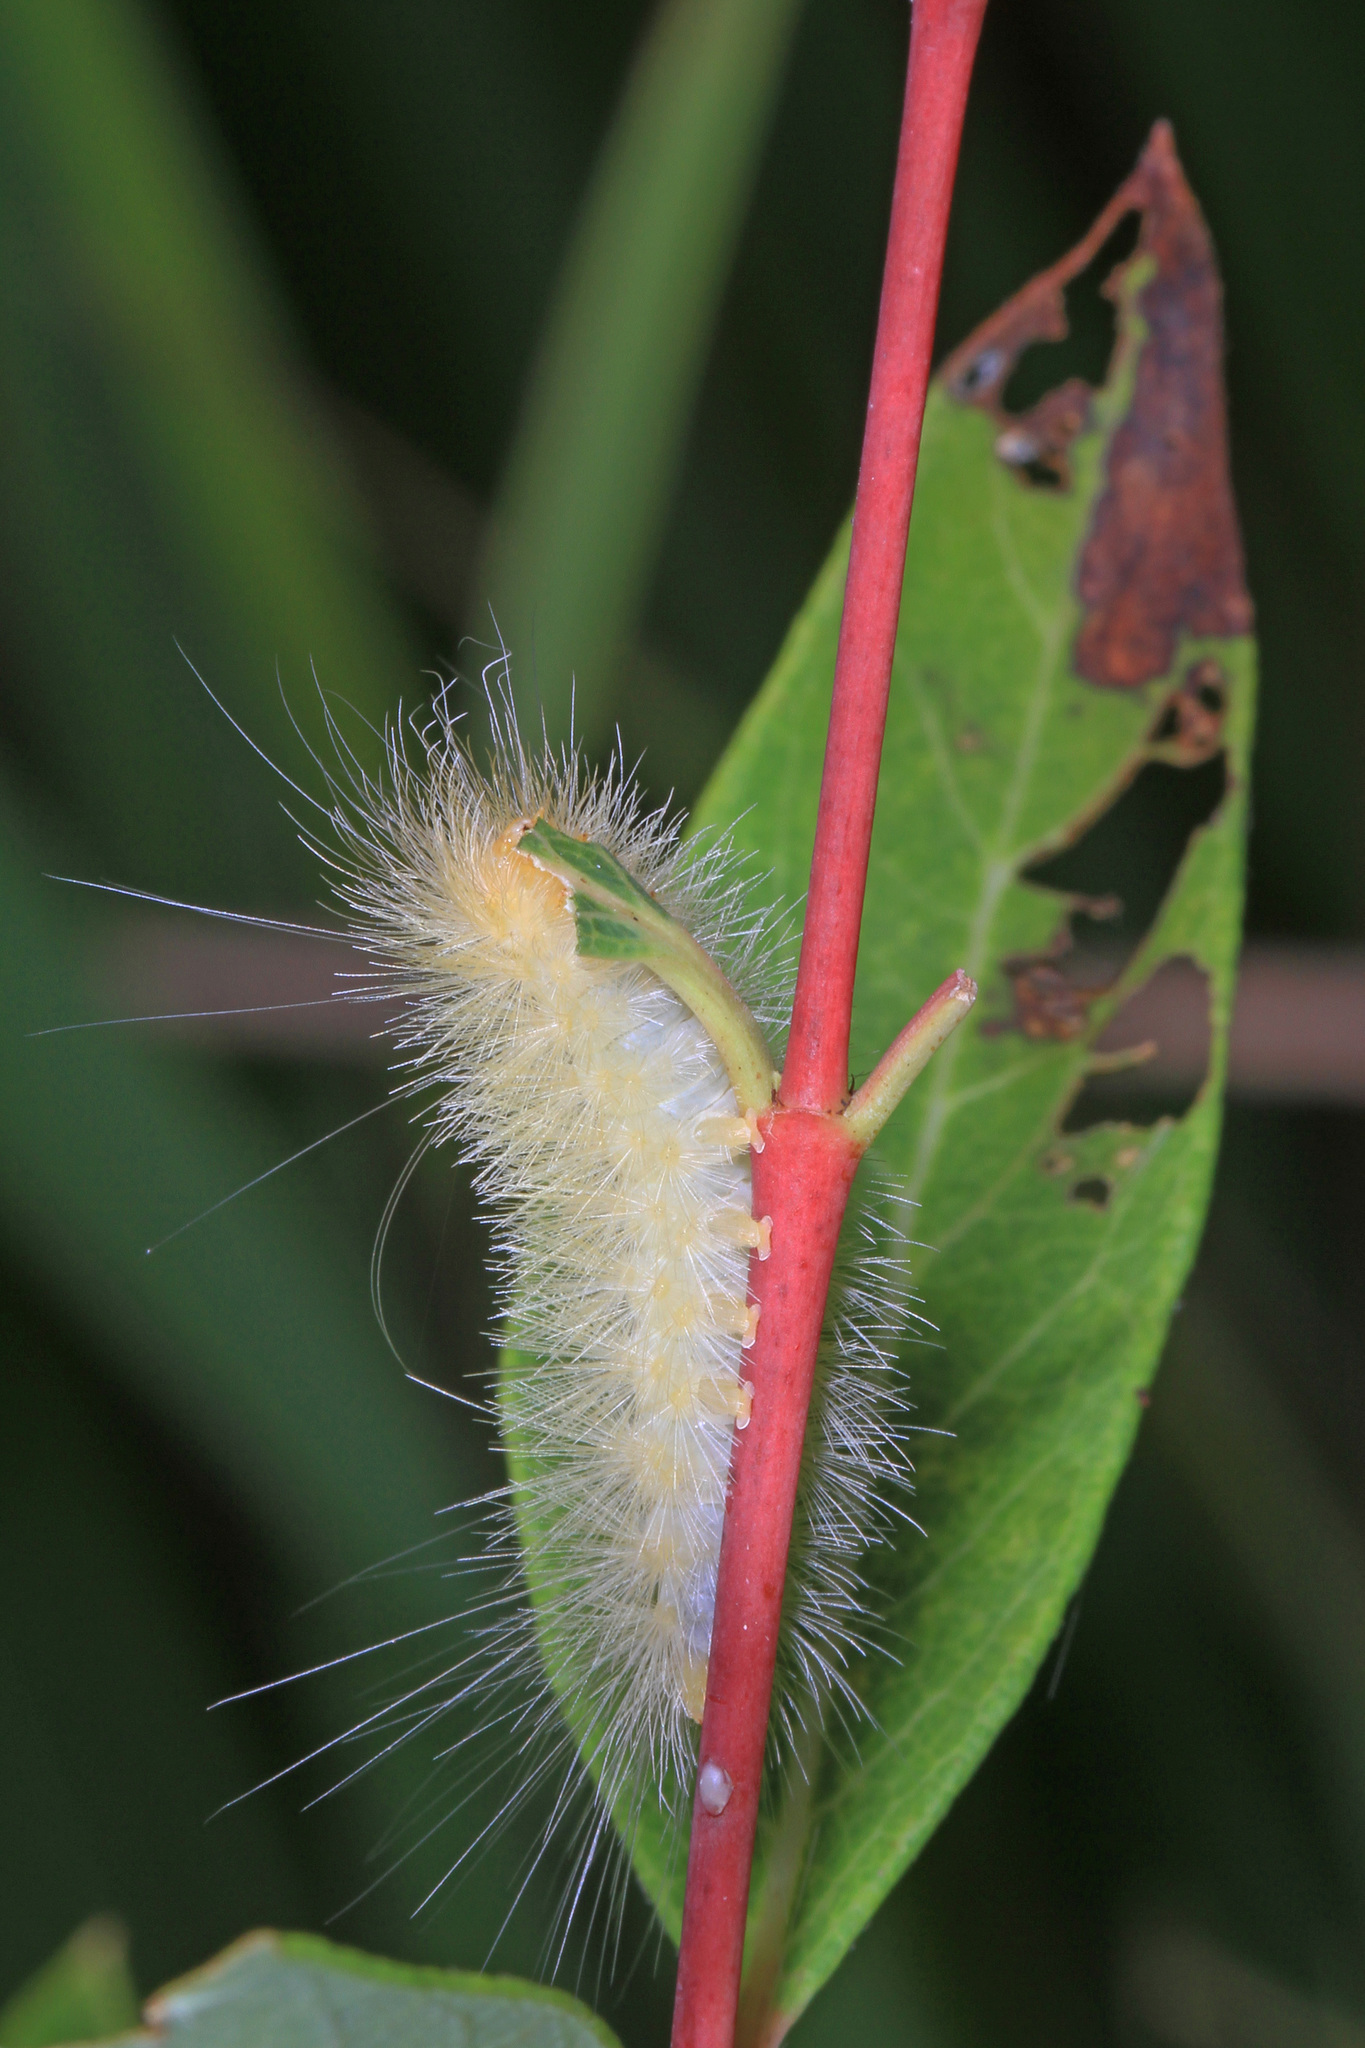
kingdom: Animalia
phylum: Arthropoda
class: Insecta
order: Lepidoptera
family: Erebidae
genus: Cycnia
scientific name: Cycnia tenera
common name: Delicate cycnia moth
